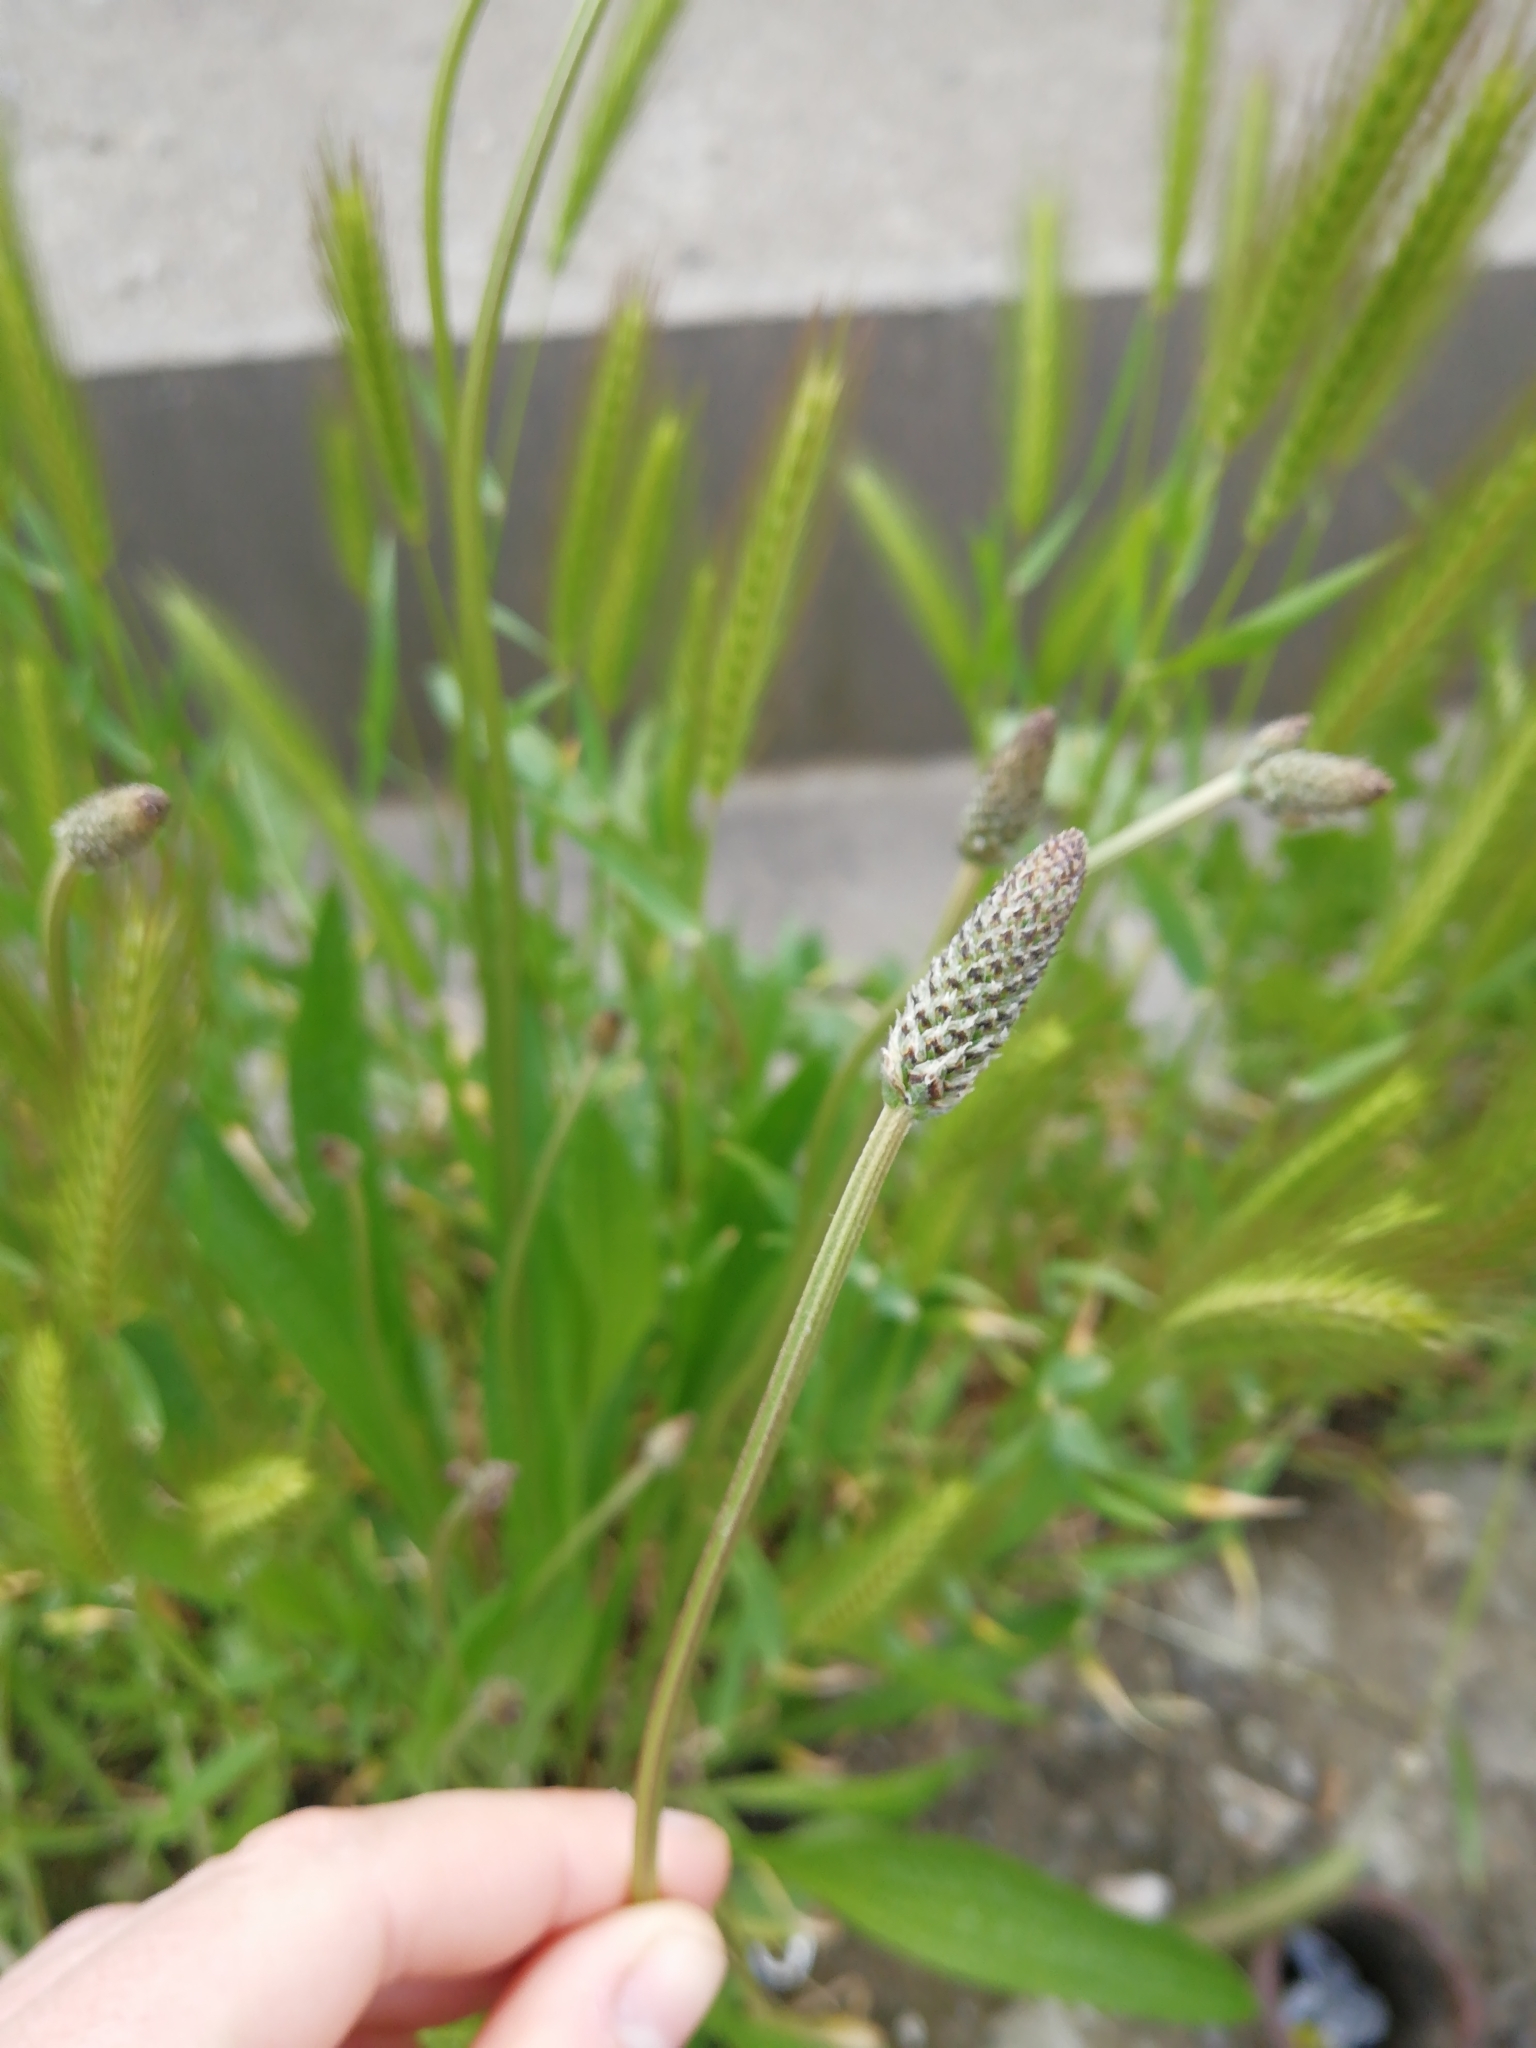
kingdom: Plantae
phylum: Tracheophyta
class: Magnoliopsida
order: Lamiales
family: Plantaginaceae
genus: Plantago
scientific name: Plantago lanceolata
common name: Ribwort plantain
